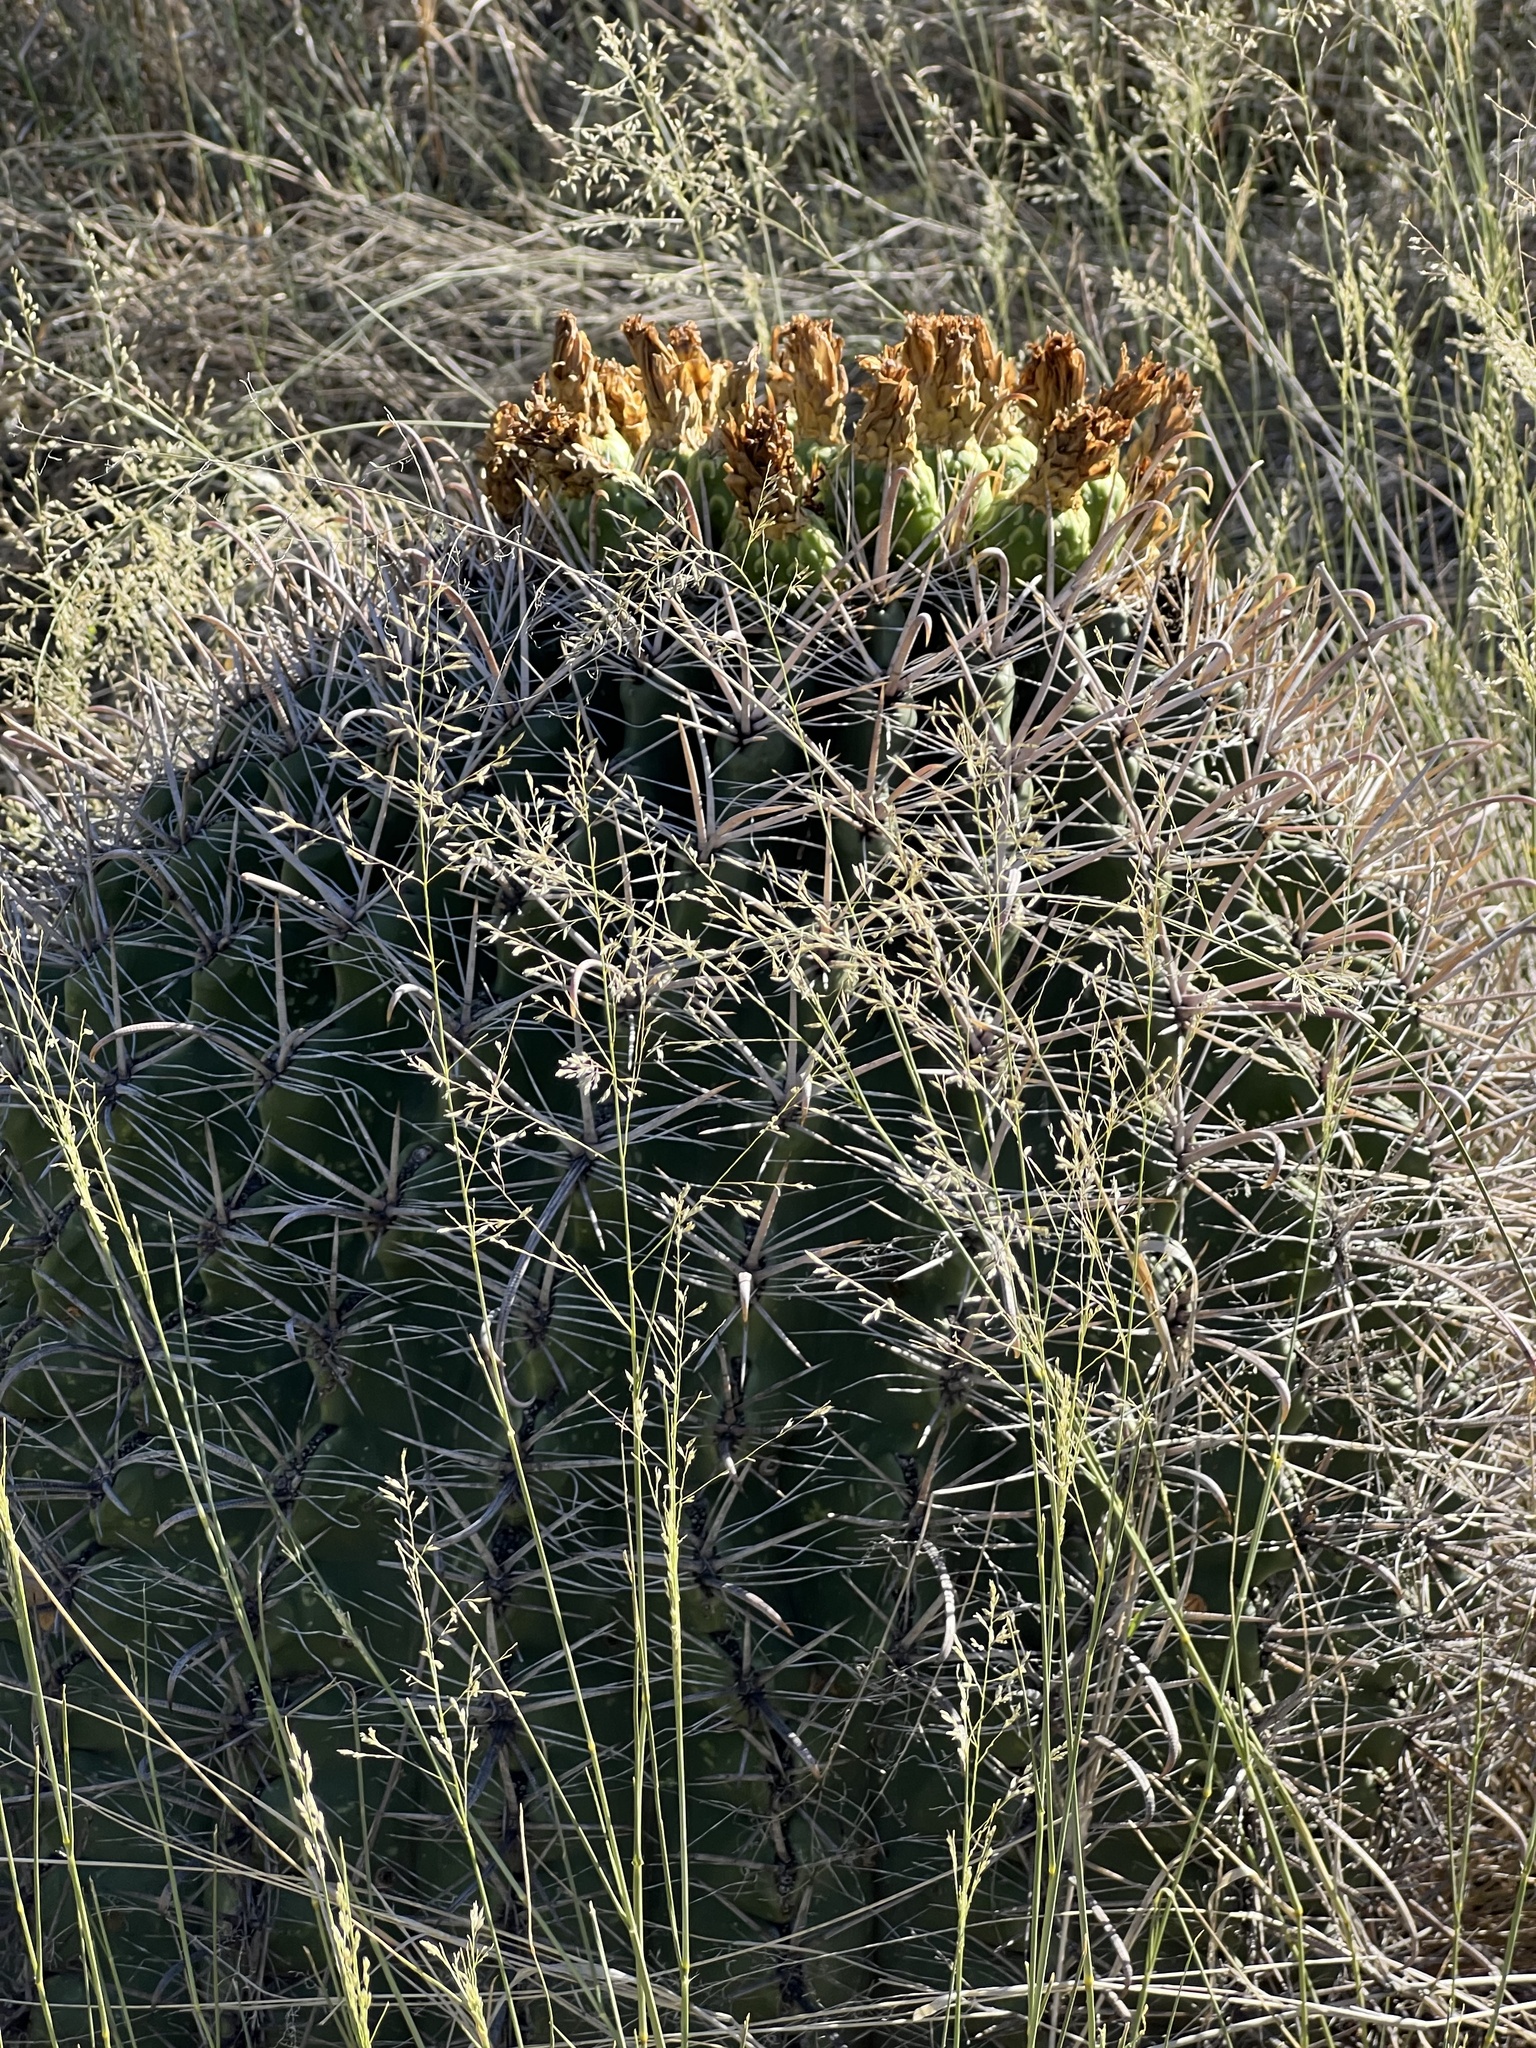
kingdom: Plantae
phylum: Tracheophyta
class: Magnoliopsida
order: Caryophyllales
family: Cactaceae
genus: Ferocactus
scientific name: Ferocactus wislizeni
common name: Candy barrel cactus
